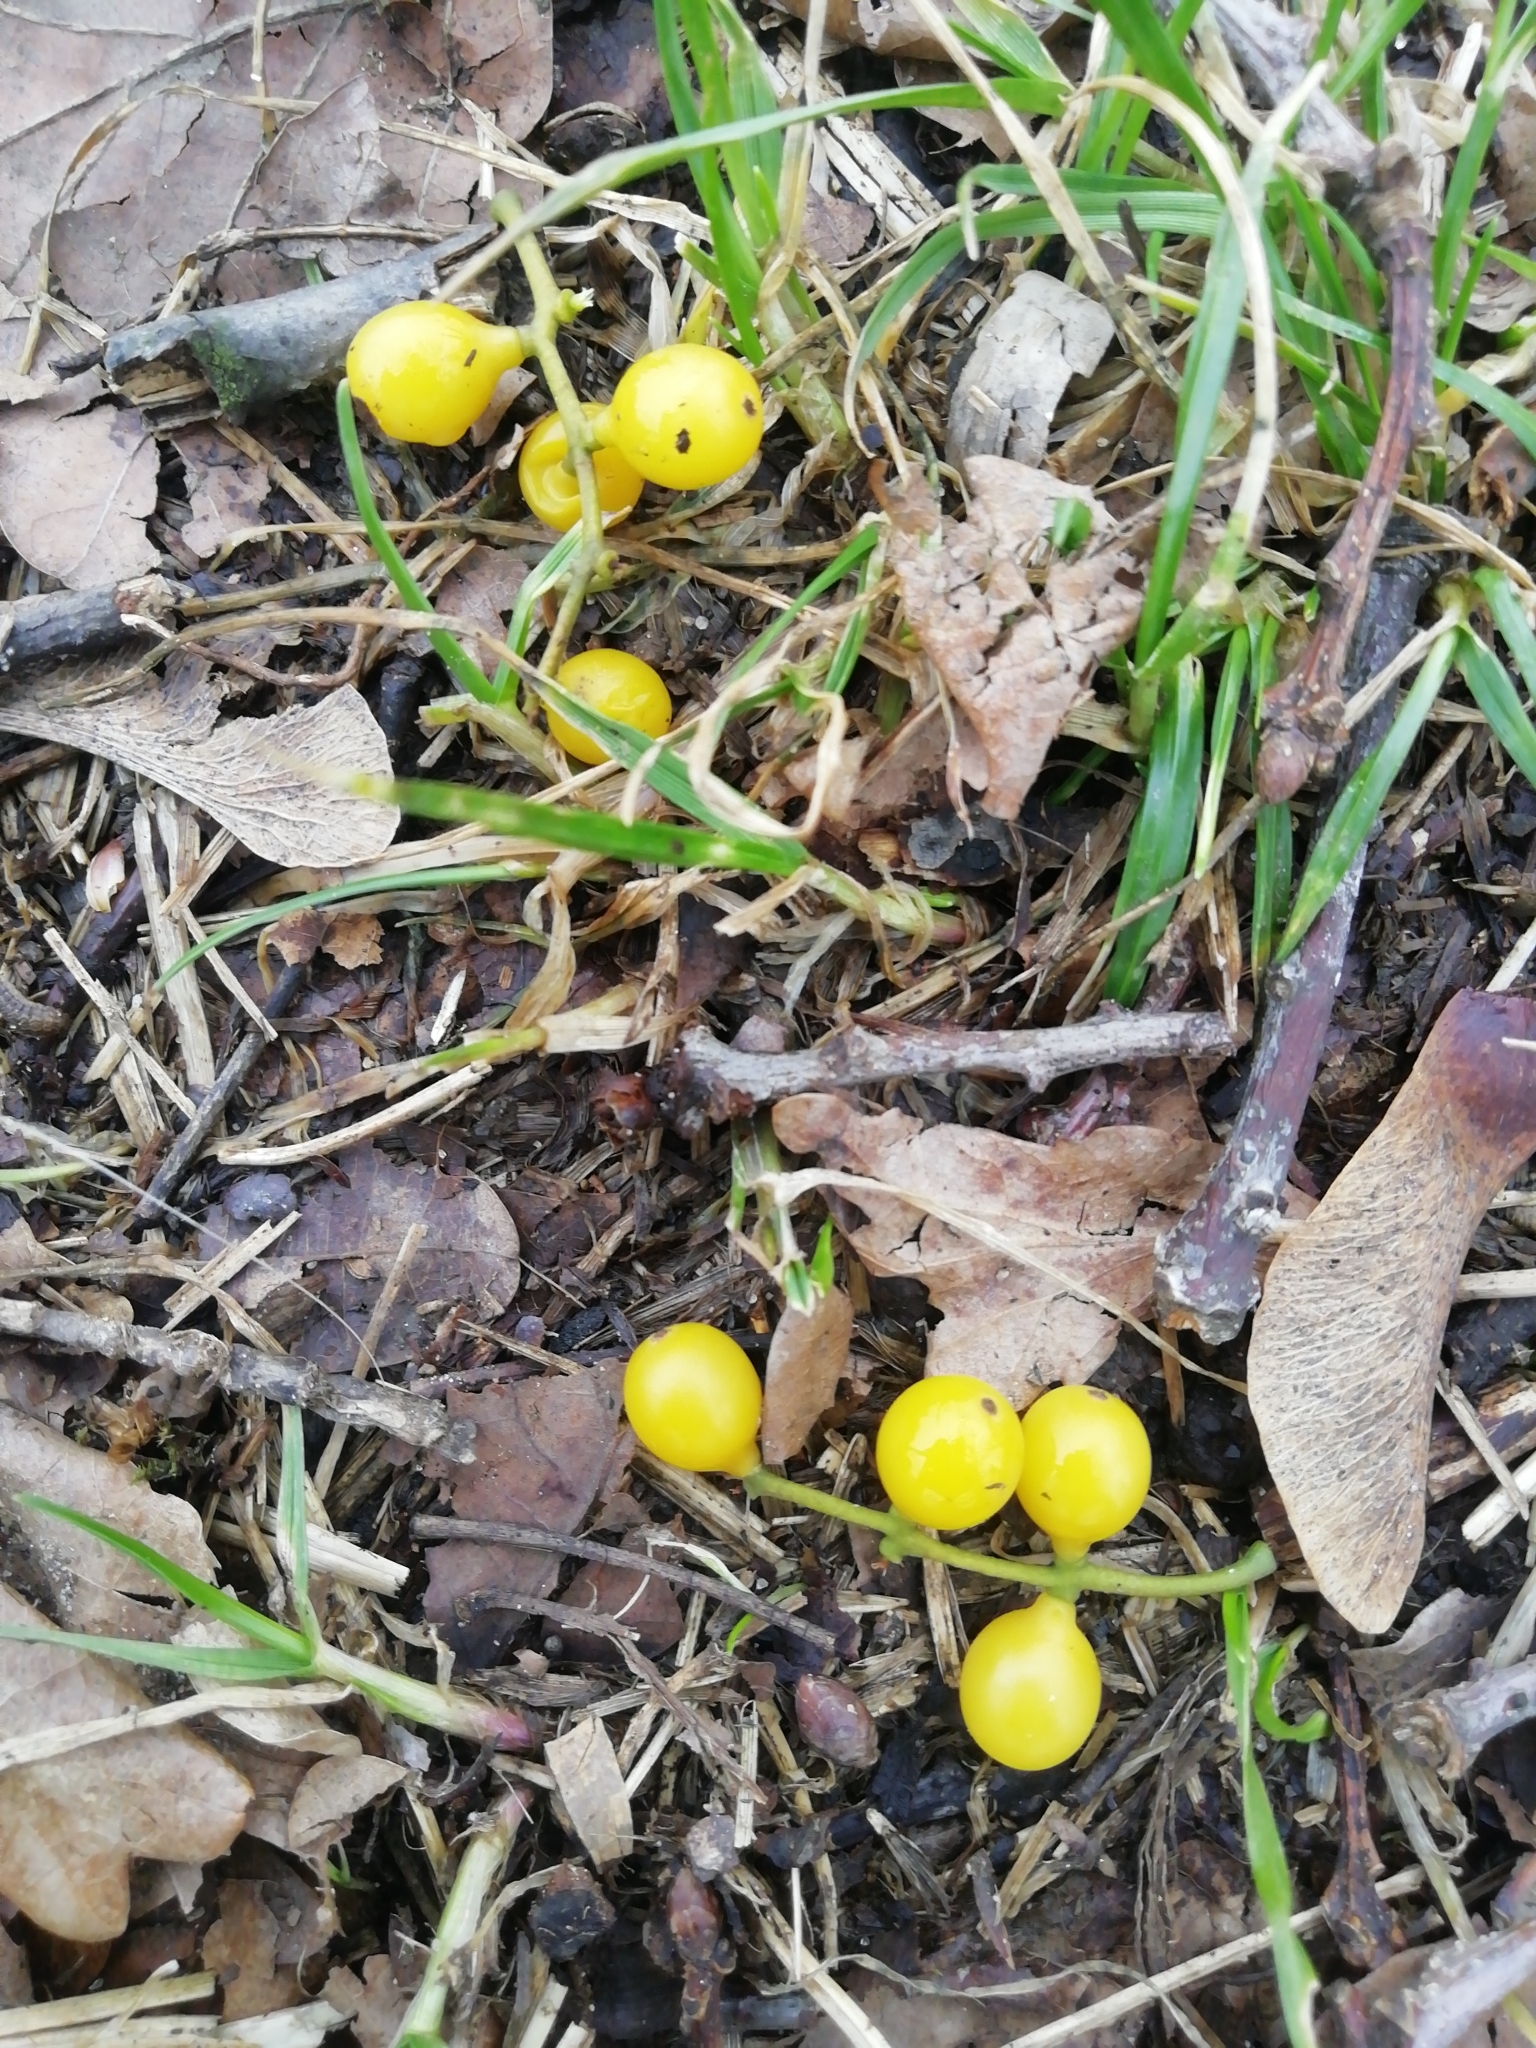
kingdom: Plantae
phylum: Tracheophyta
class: Magnoliopsida
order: Santalales
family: Loranthaceae
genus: Loranthus
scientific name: Loranthus europaeus
